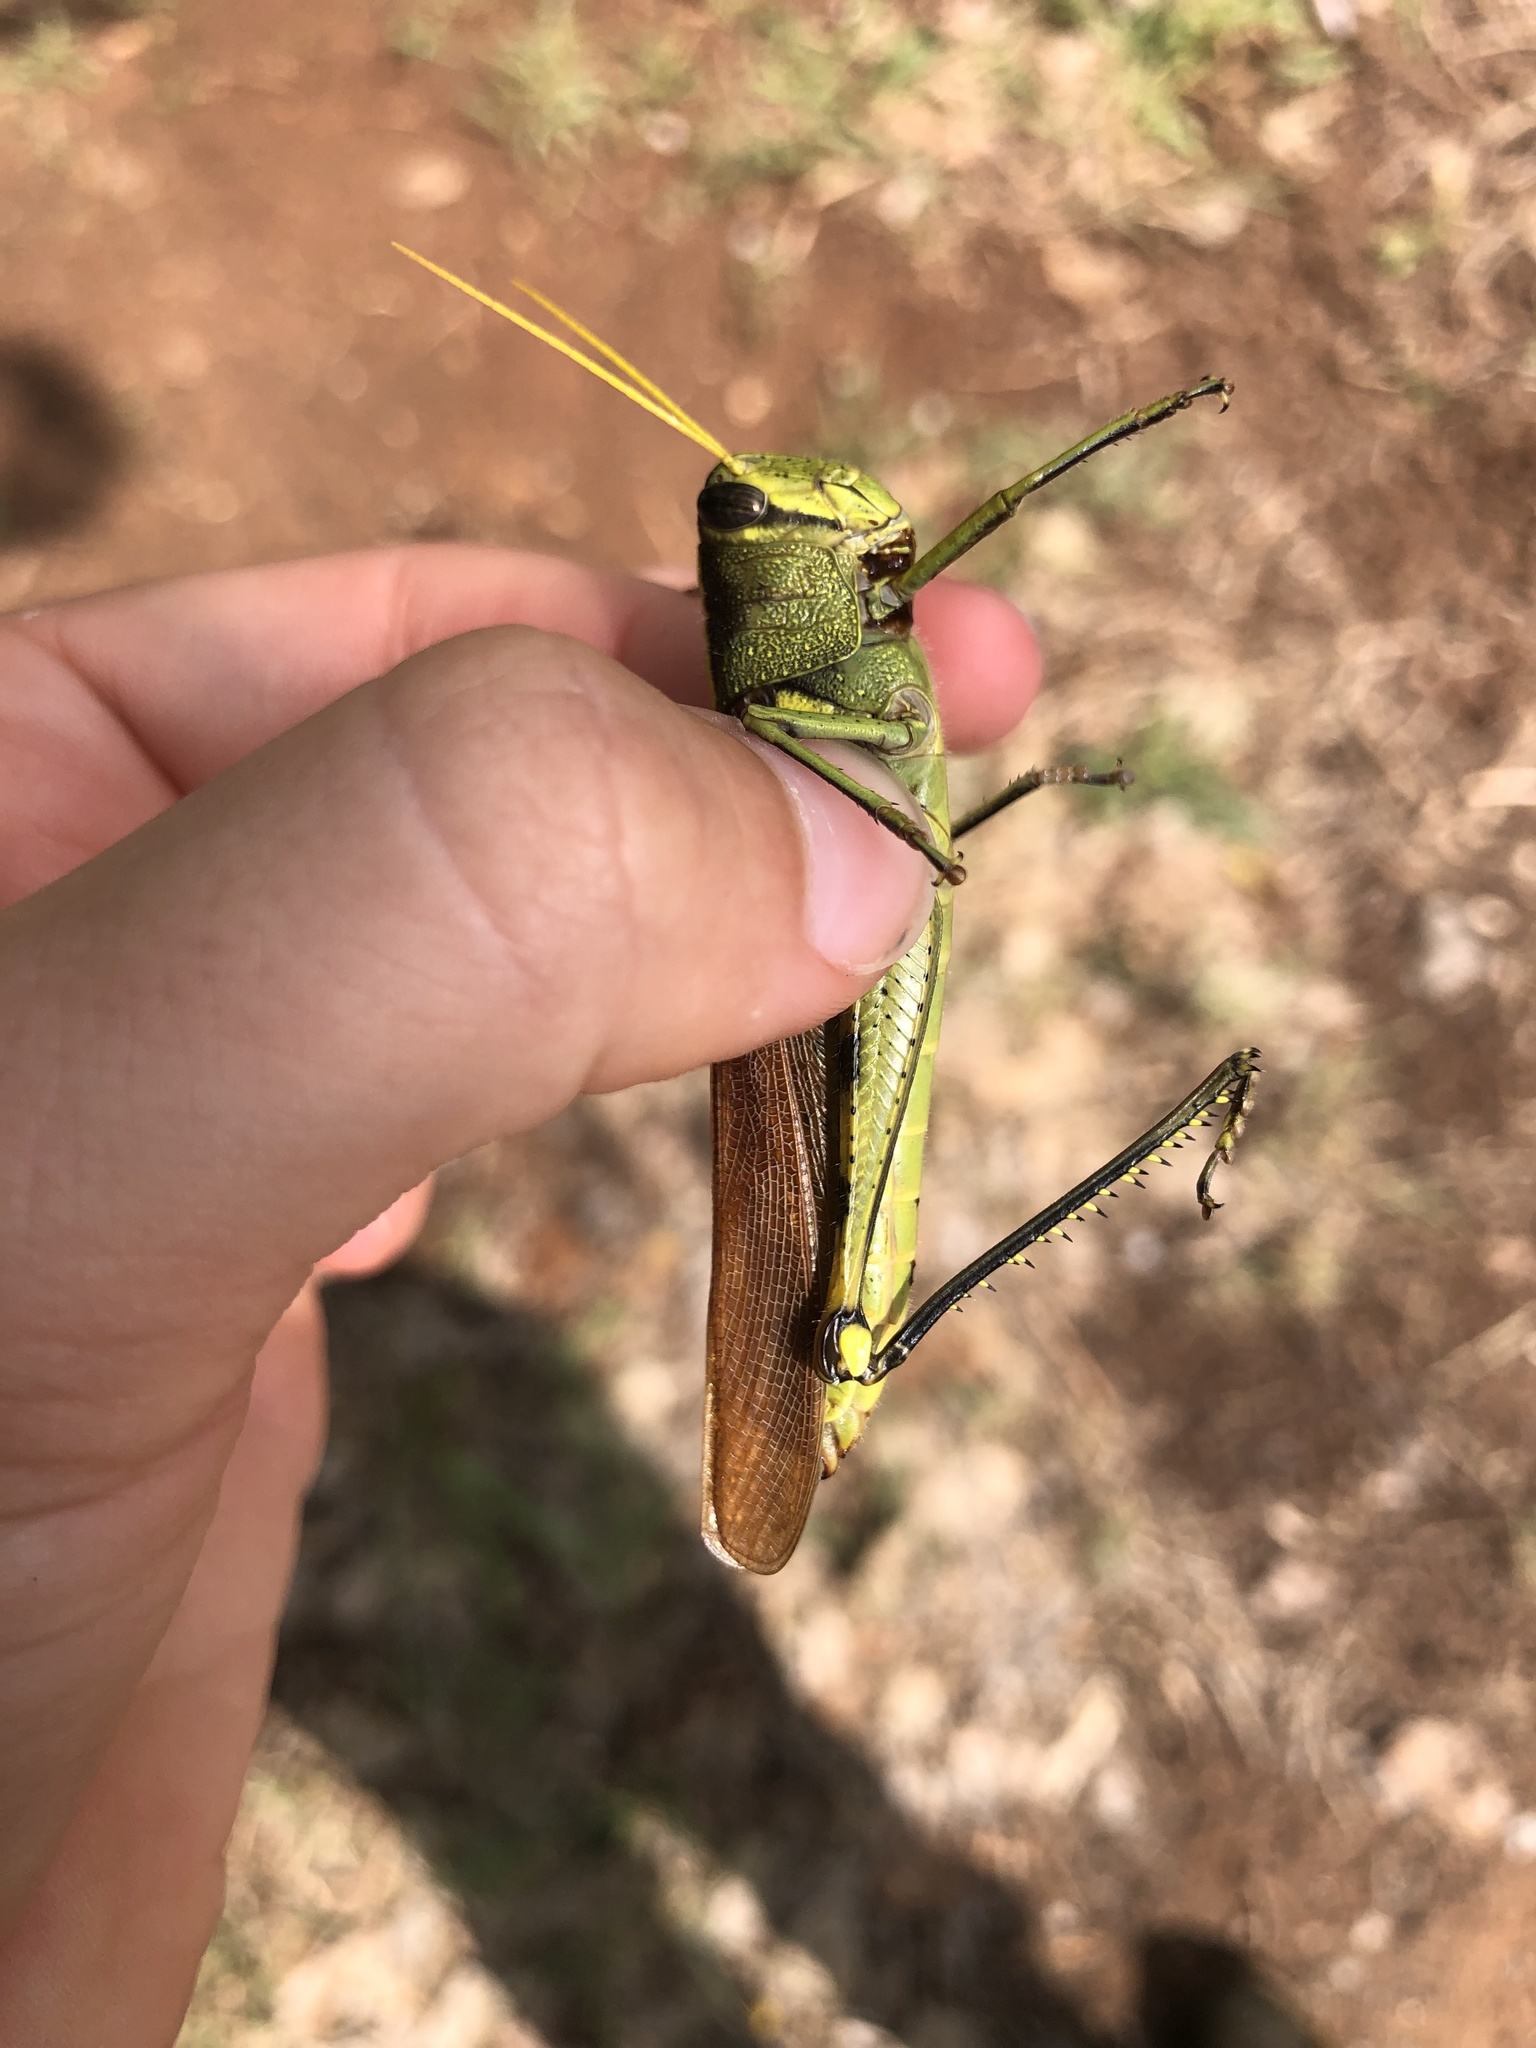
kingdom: Animalia
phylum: Arthropoda
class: Insecta
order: Orthoptera
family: Acrididae
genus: Schistocerca
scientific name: Schistocerca obscura
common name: Obscure bird grasshopper
